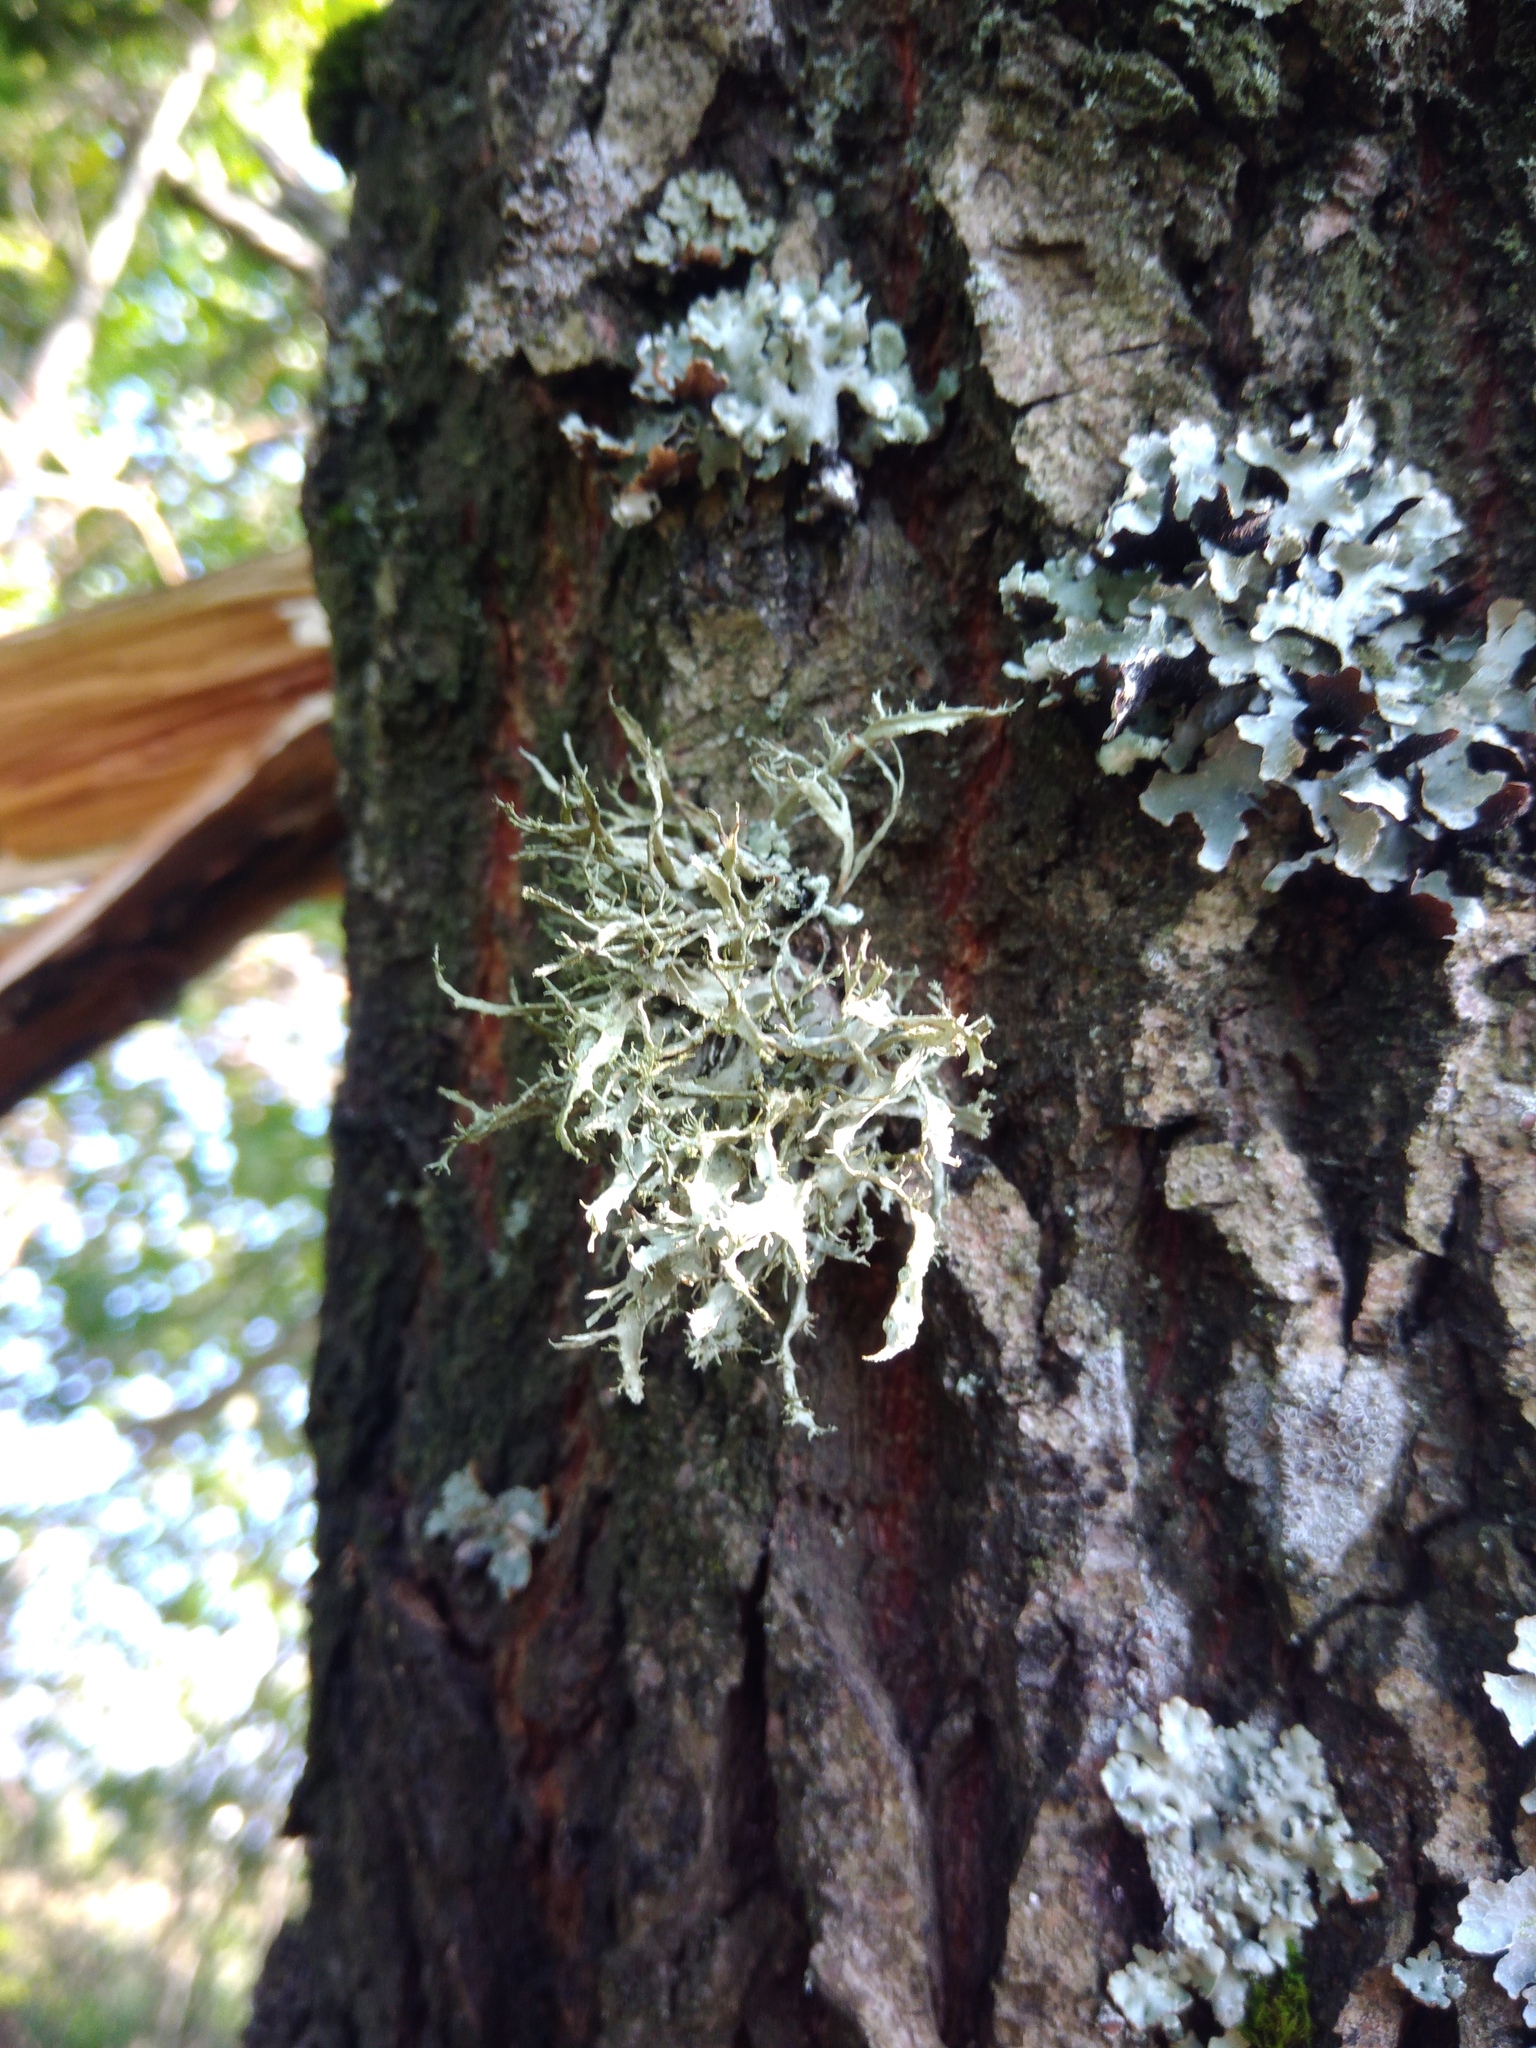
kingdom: Fungi
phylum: Ascomycota
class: Lecanoromycetes
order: Lecanorales
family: Ramalinaceae
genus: Ramalina
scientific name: Ramalina farinacea
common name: Farinose cartilage lichen
